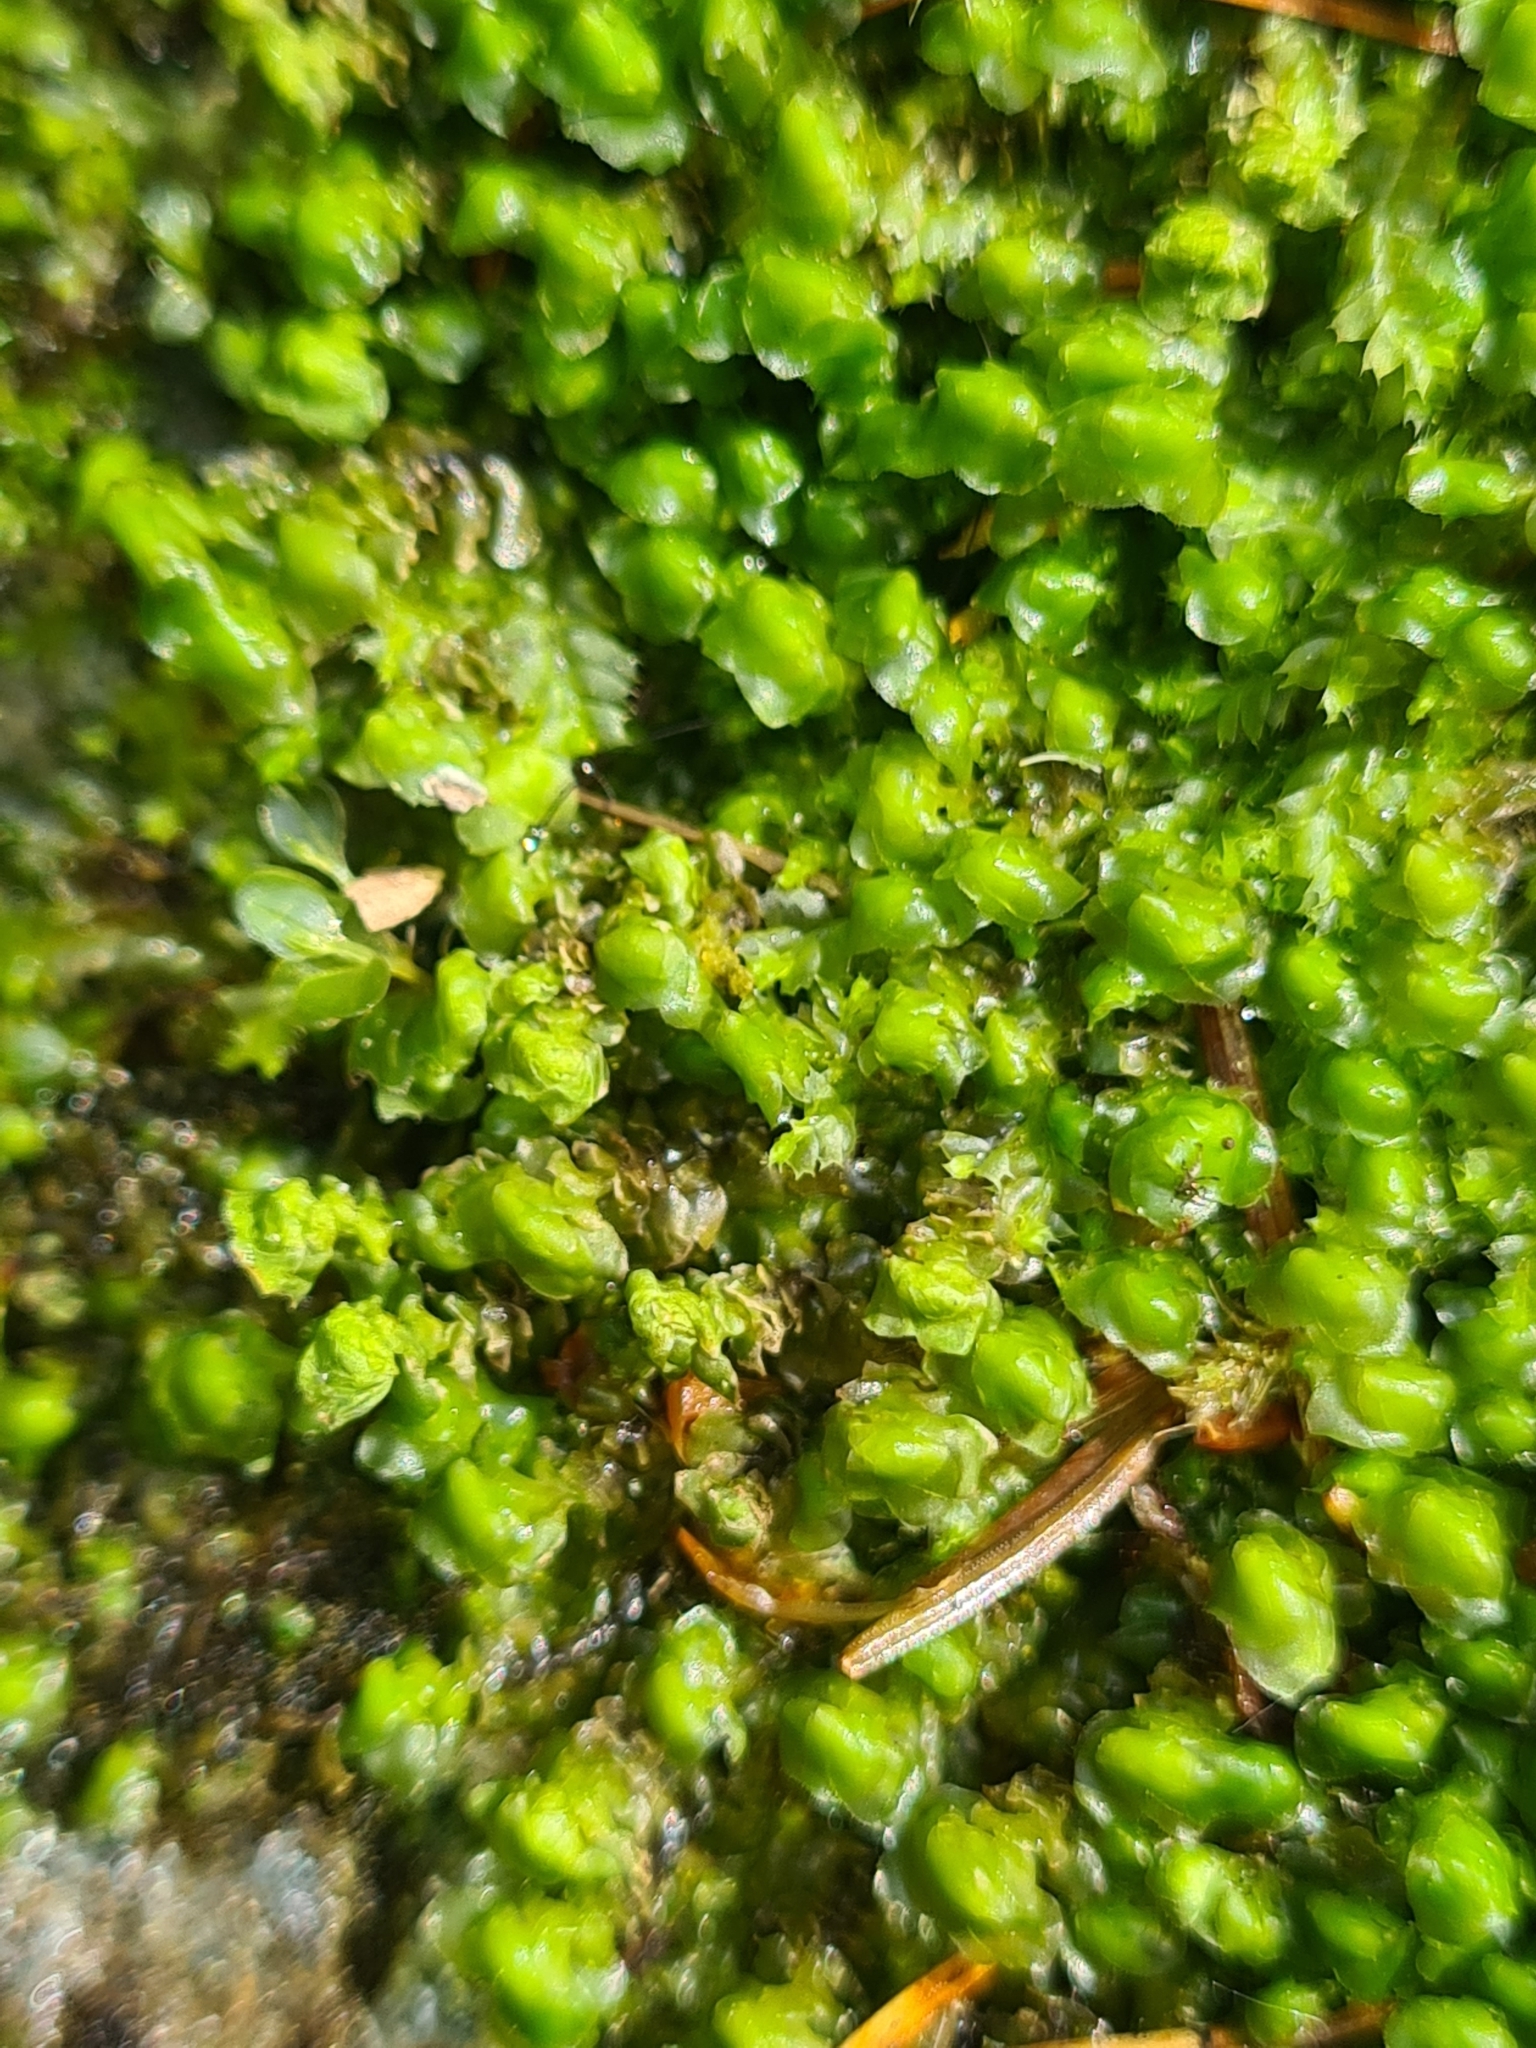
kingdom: Plantae
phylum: Marchantiophyta
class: Jungermanniopsida
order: Jungermanniales
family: Scapaniaceae
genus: Scapania
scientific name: Scapania undulata
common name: Water earwort
